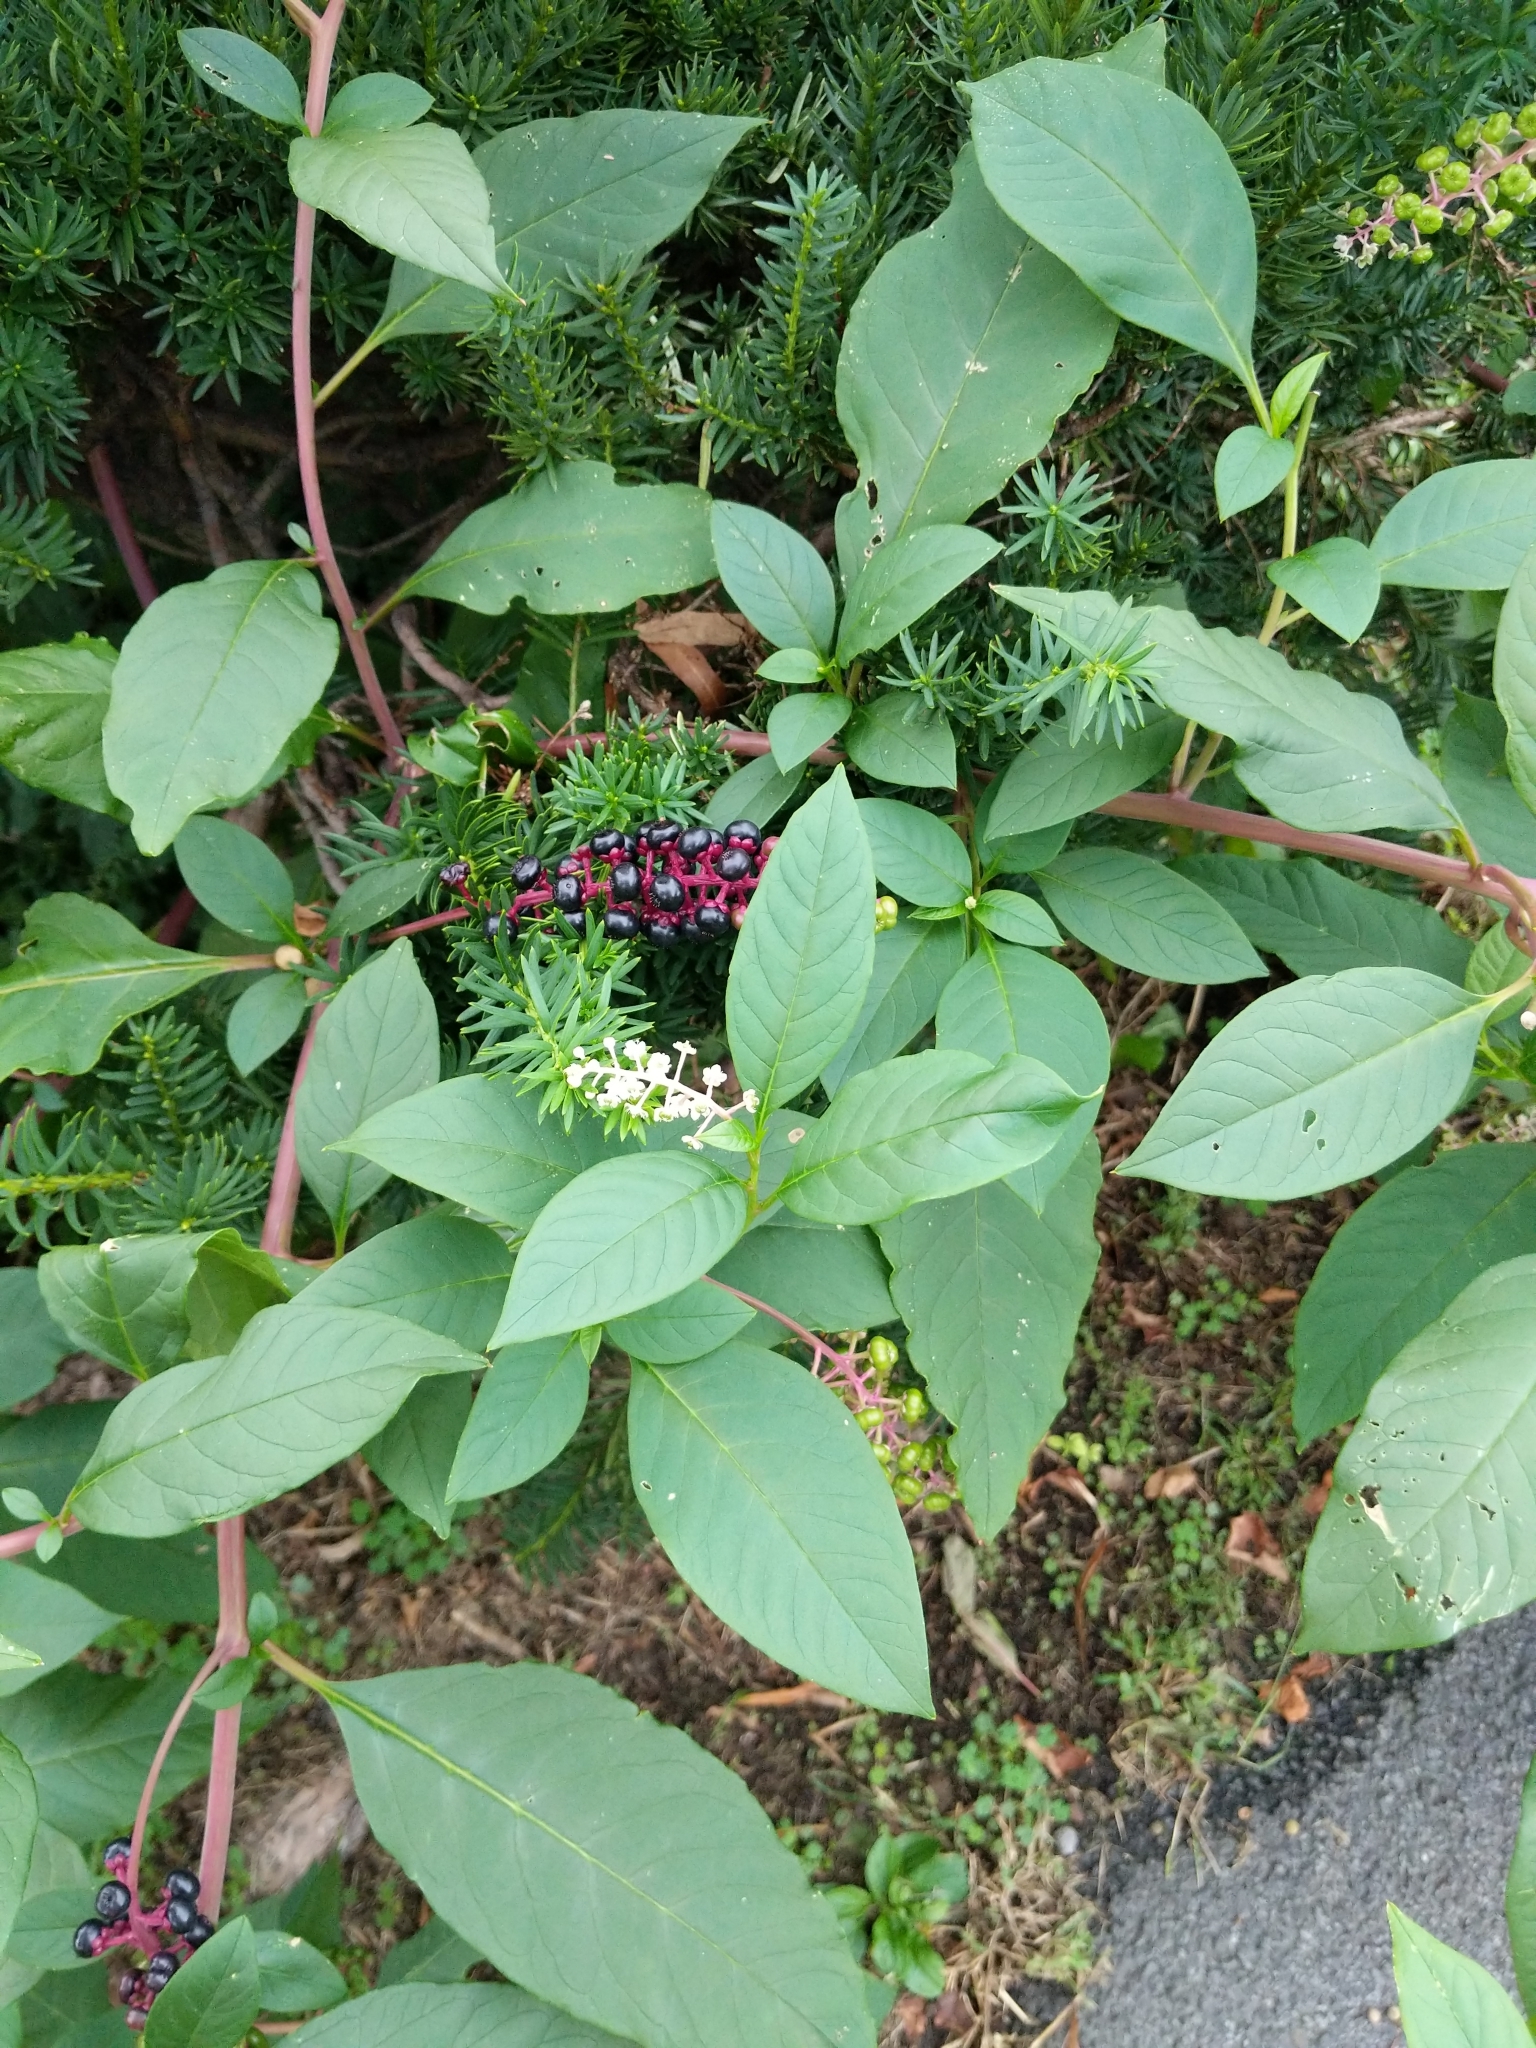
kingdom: Plantae
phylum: Tracheophyta
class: Magnoliopsida
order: Caryophyllales
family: Phytolaccaceae
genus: Phytolacca
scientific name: Phytolacca americana
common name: American pokeweed
